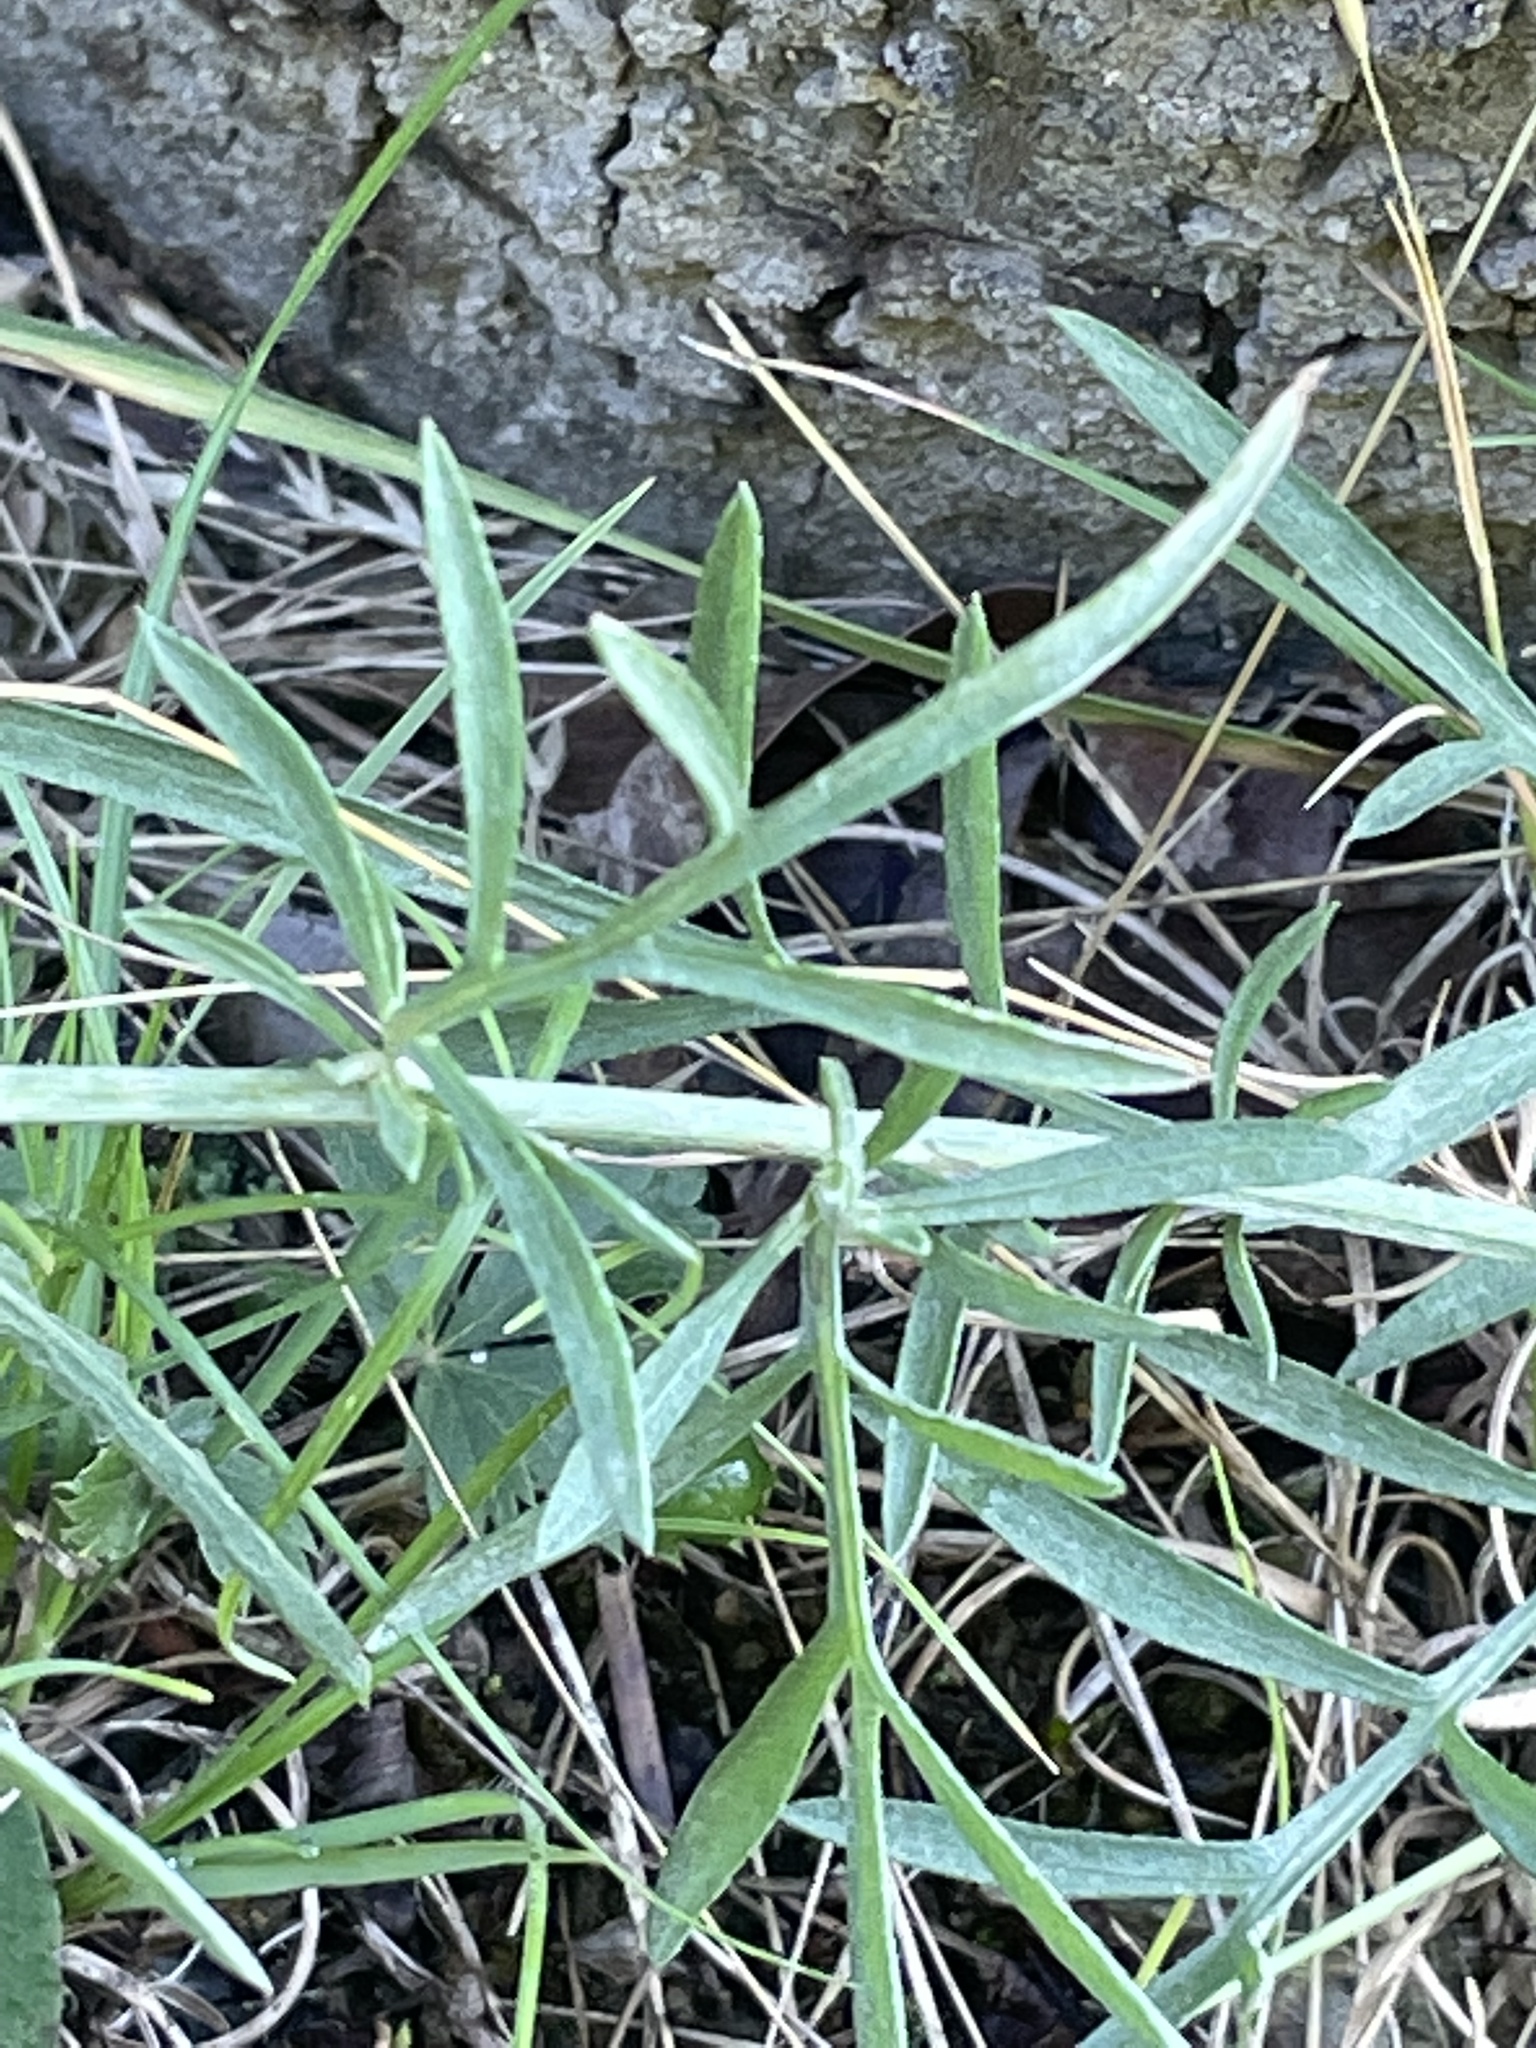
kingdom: Plantae
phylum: Tracheophyta
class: Magnoliopsida
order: Asterales
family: Asteraceae
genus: Centaurea
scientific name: Centaurea stoebe
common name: Spotted knapweed
